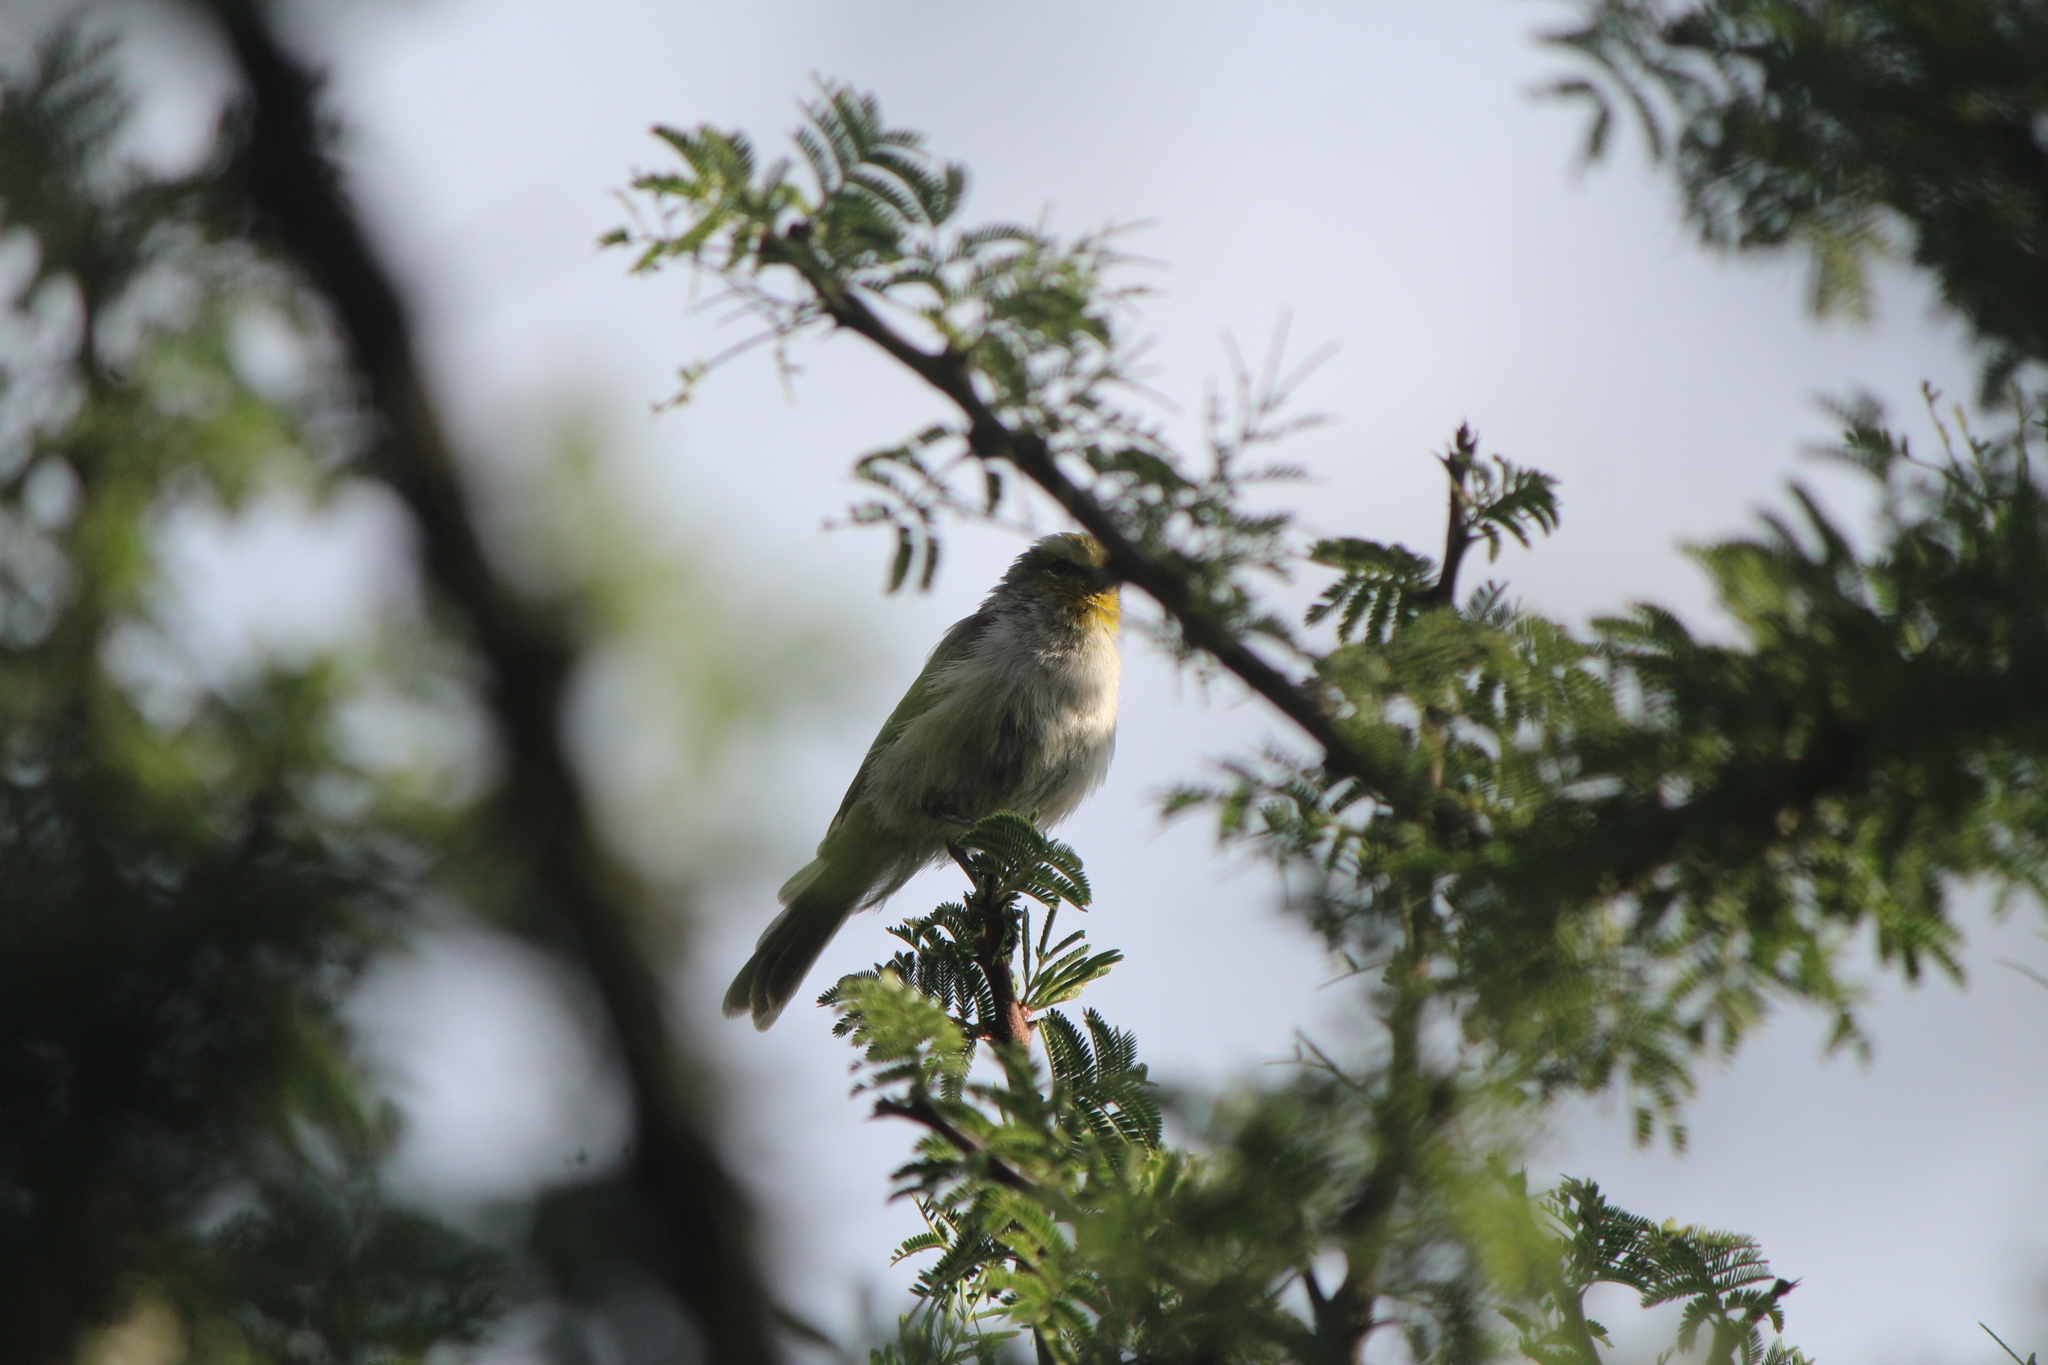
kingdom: Animalia
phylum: Chordata
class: Aves
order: Passeriformes
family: Remizidae
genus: Auriparus
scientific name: Auriparus flaviceps
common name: Verdin
